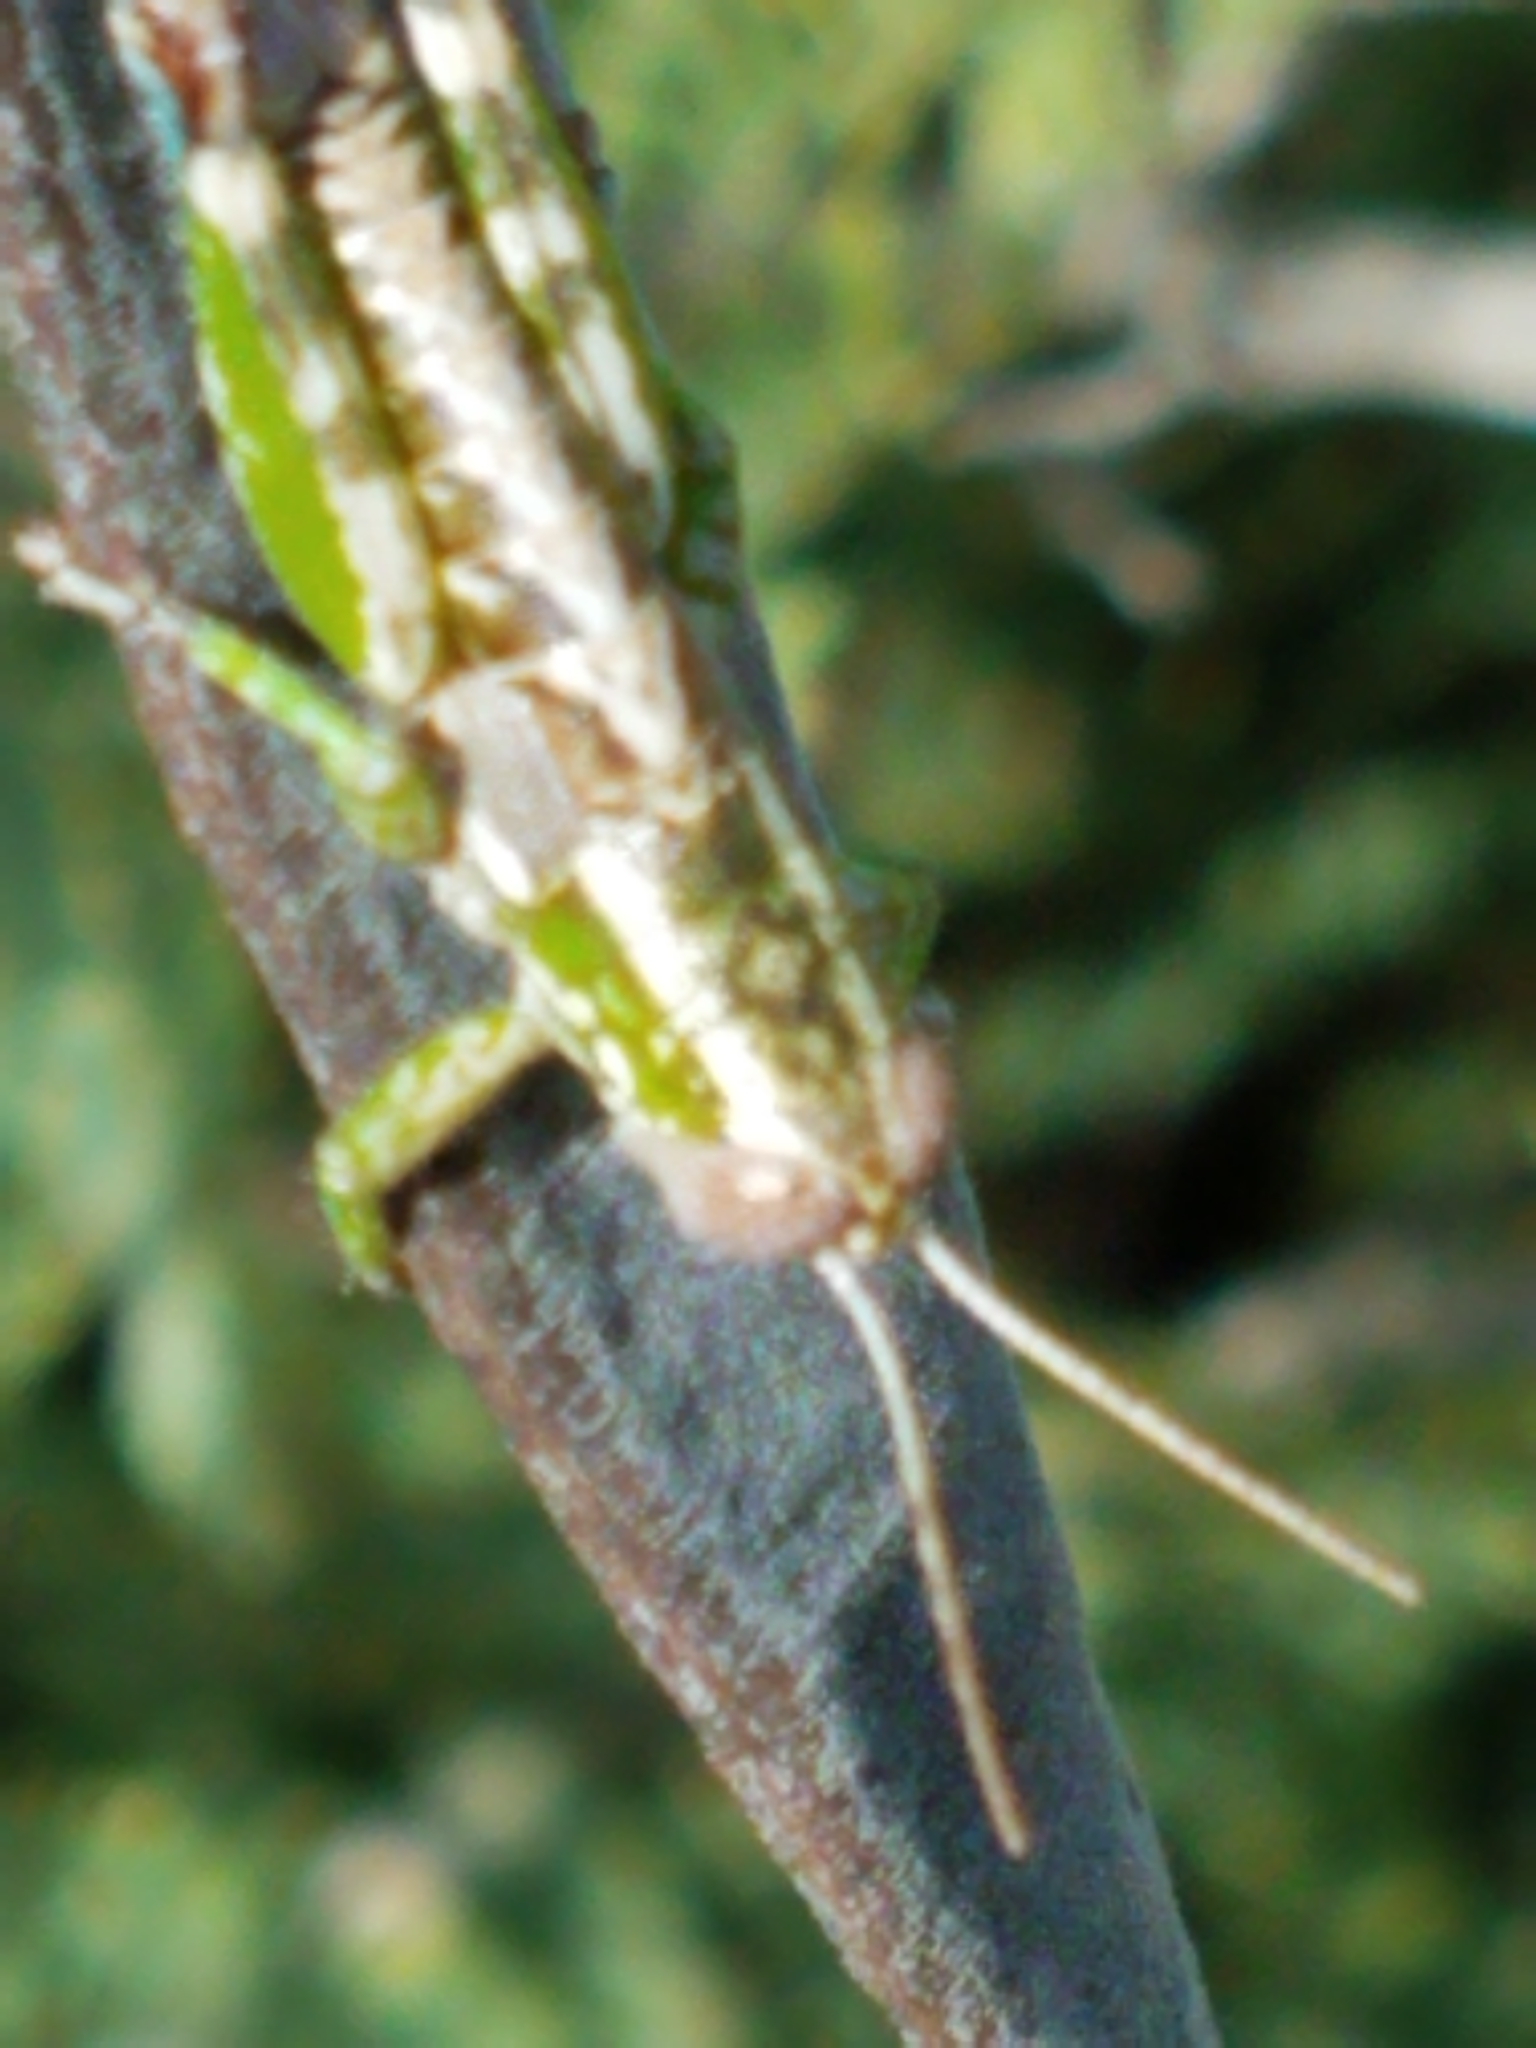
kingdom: Animalia
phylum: Arthropoda
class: Insecta
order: Orthoptera
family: Acrididae
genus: Phaulotettix
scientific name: Phaulotettix compressus
